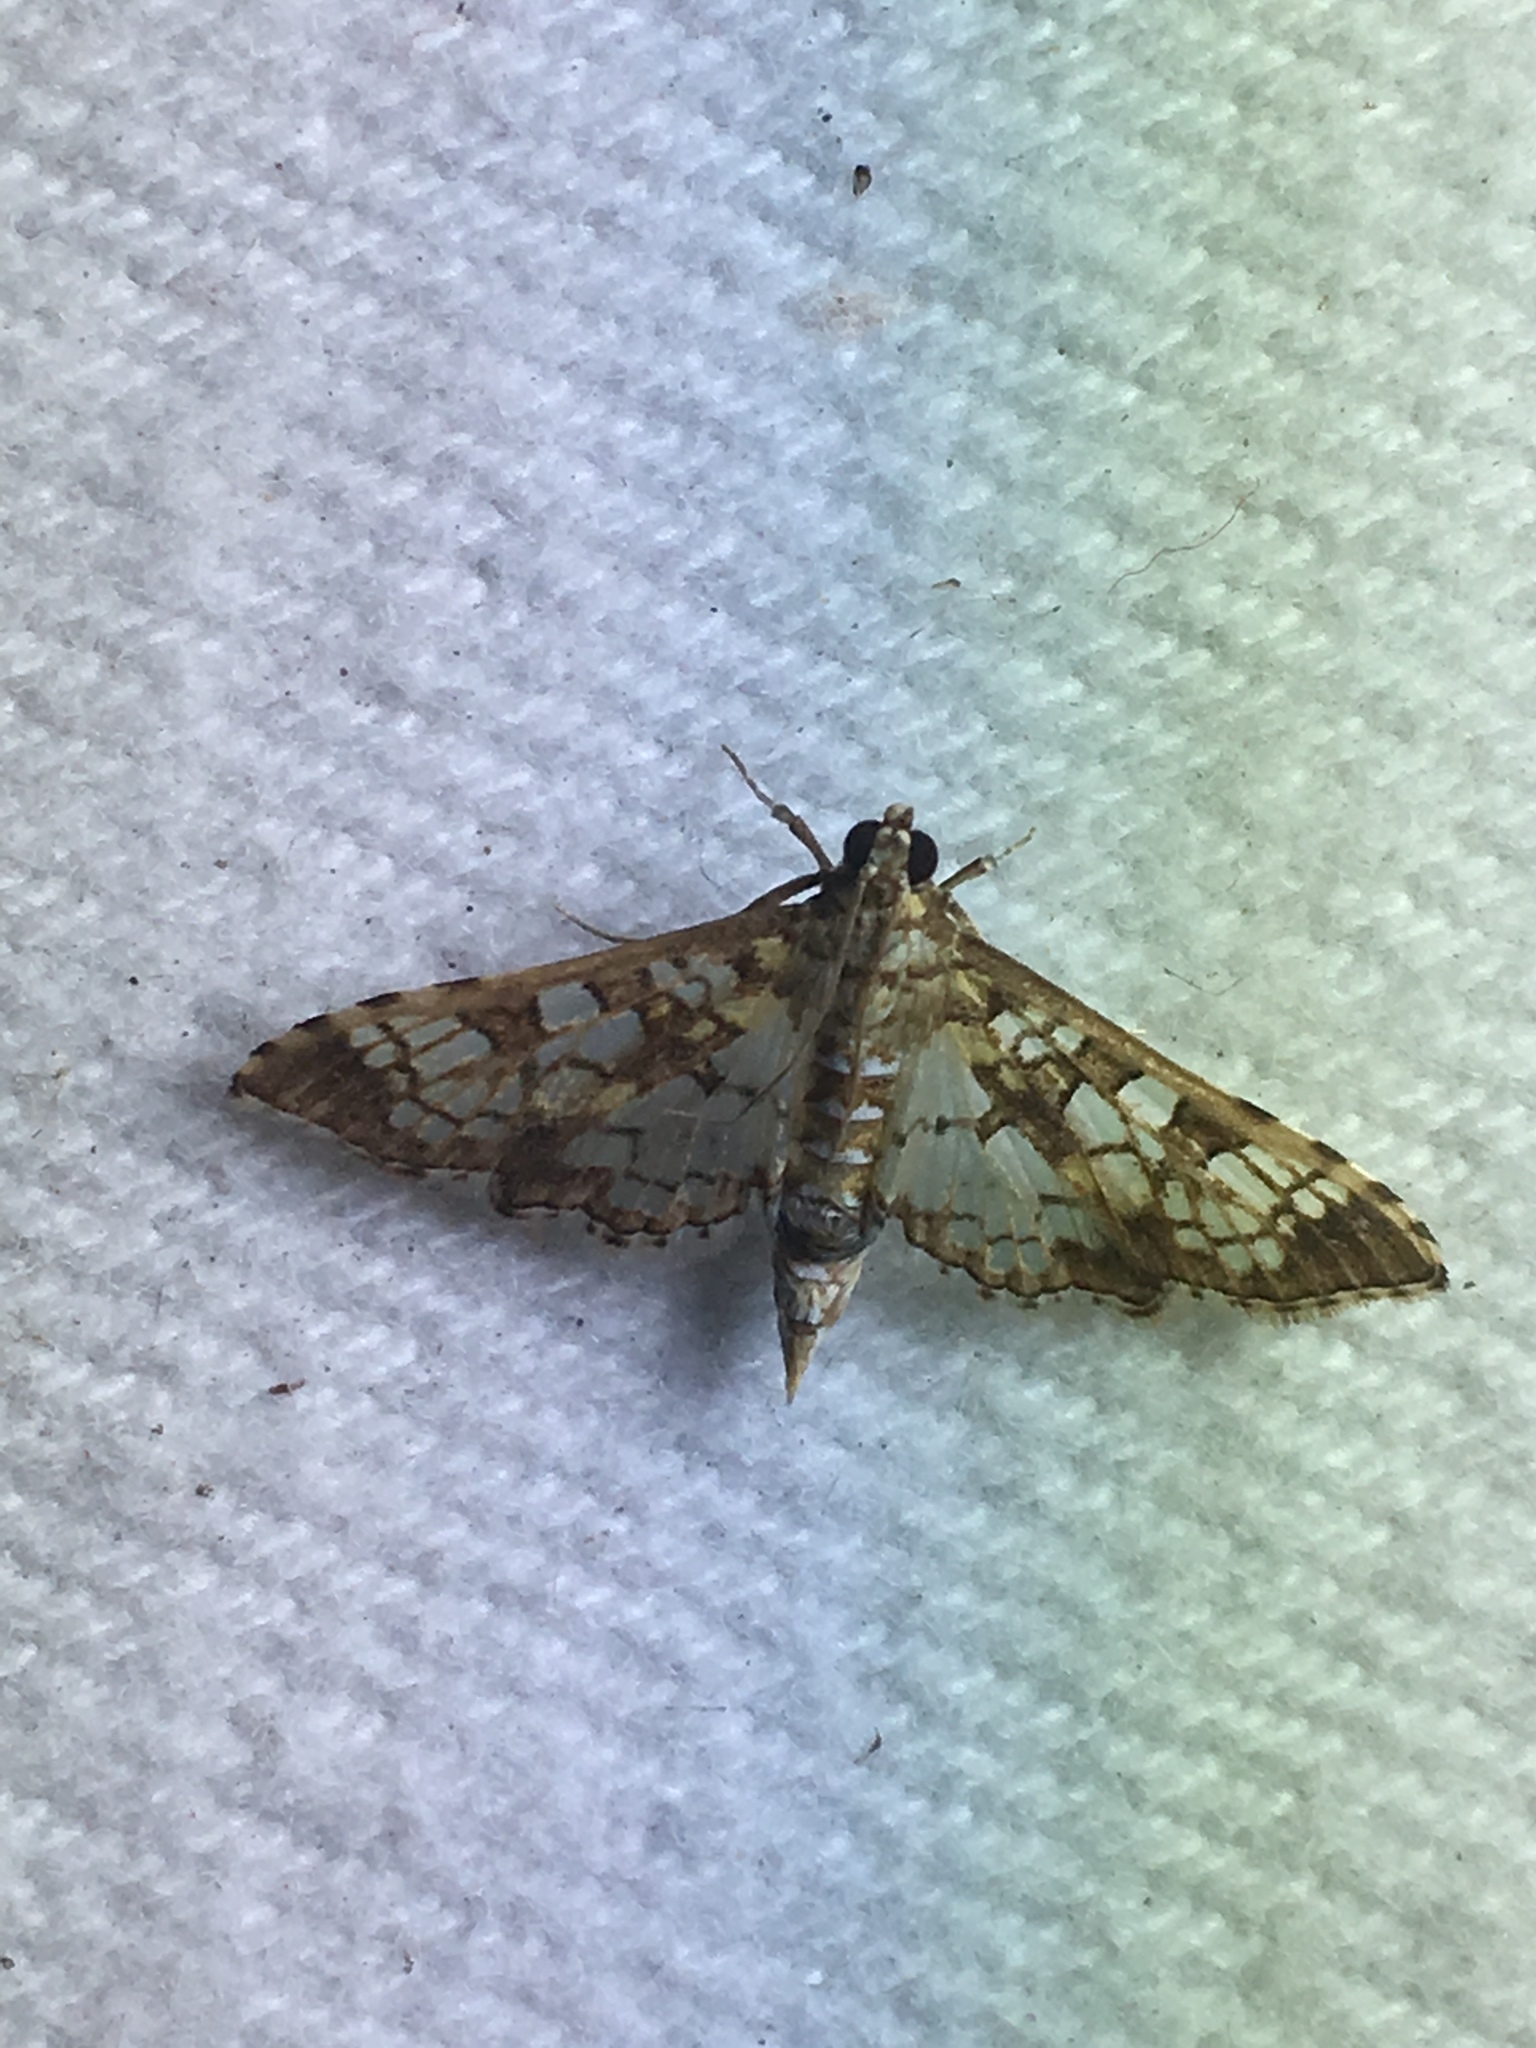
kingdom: Animalia
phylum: Arthropoda
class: Insecta
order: Lepidoptera
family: Crambidae
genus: Samea
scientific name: Samea ecclesialis
